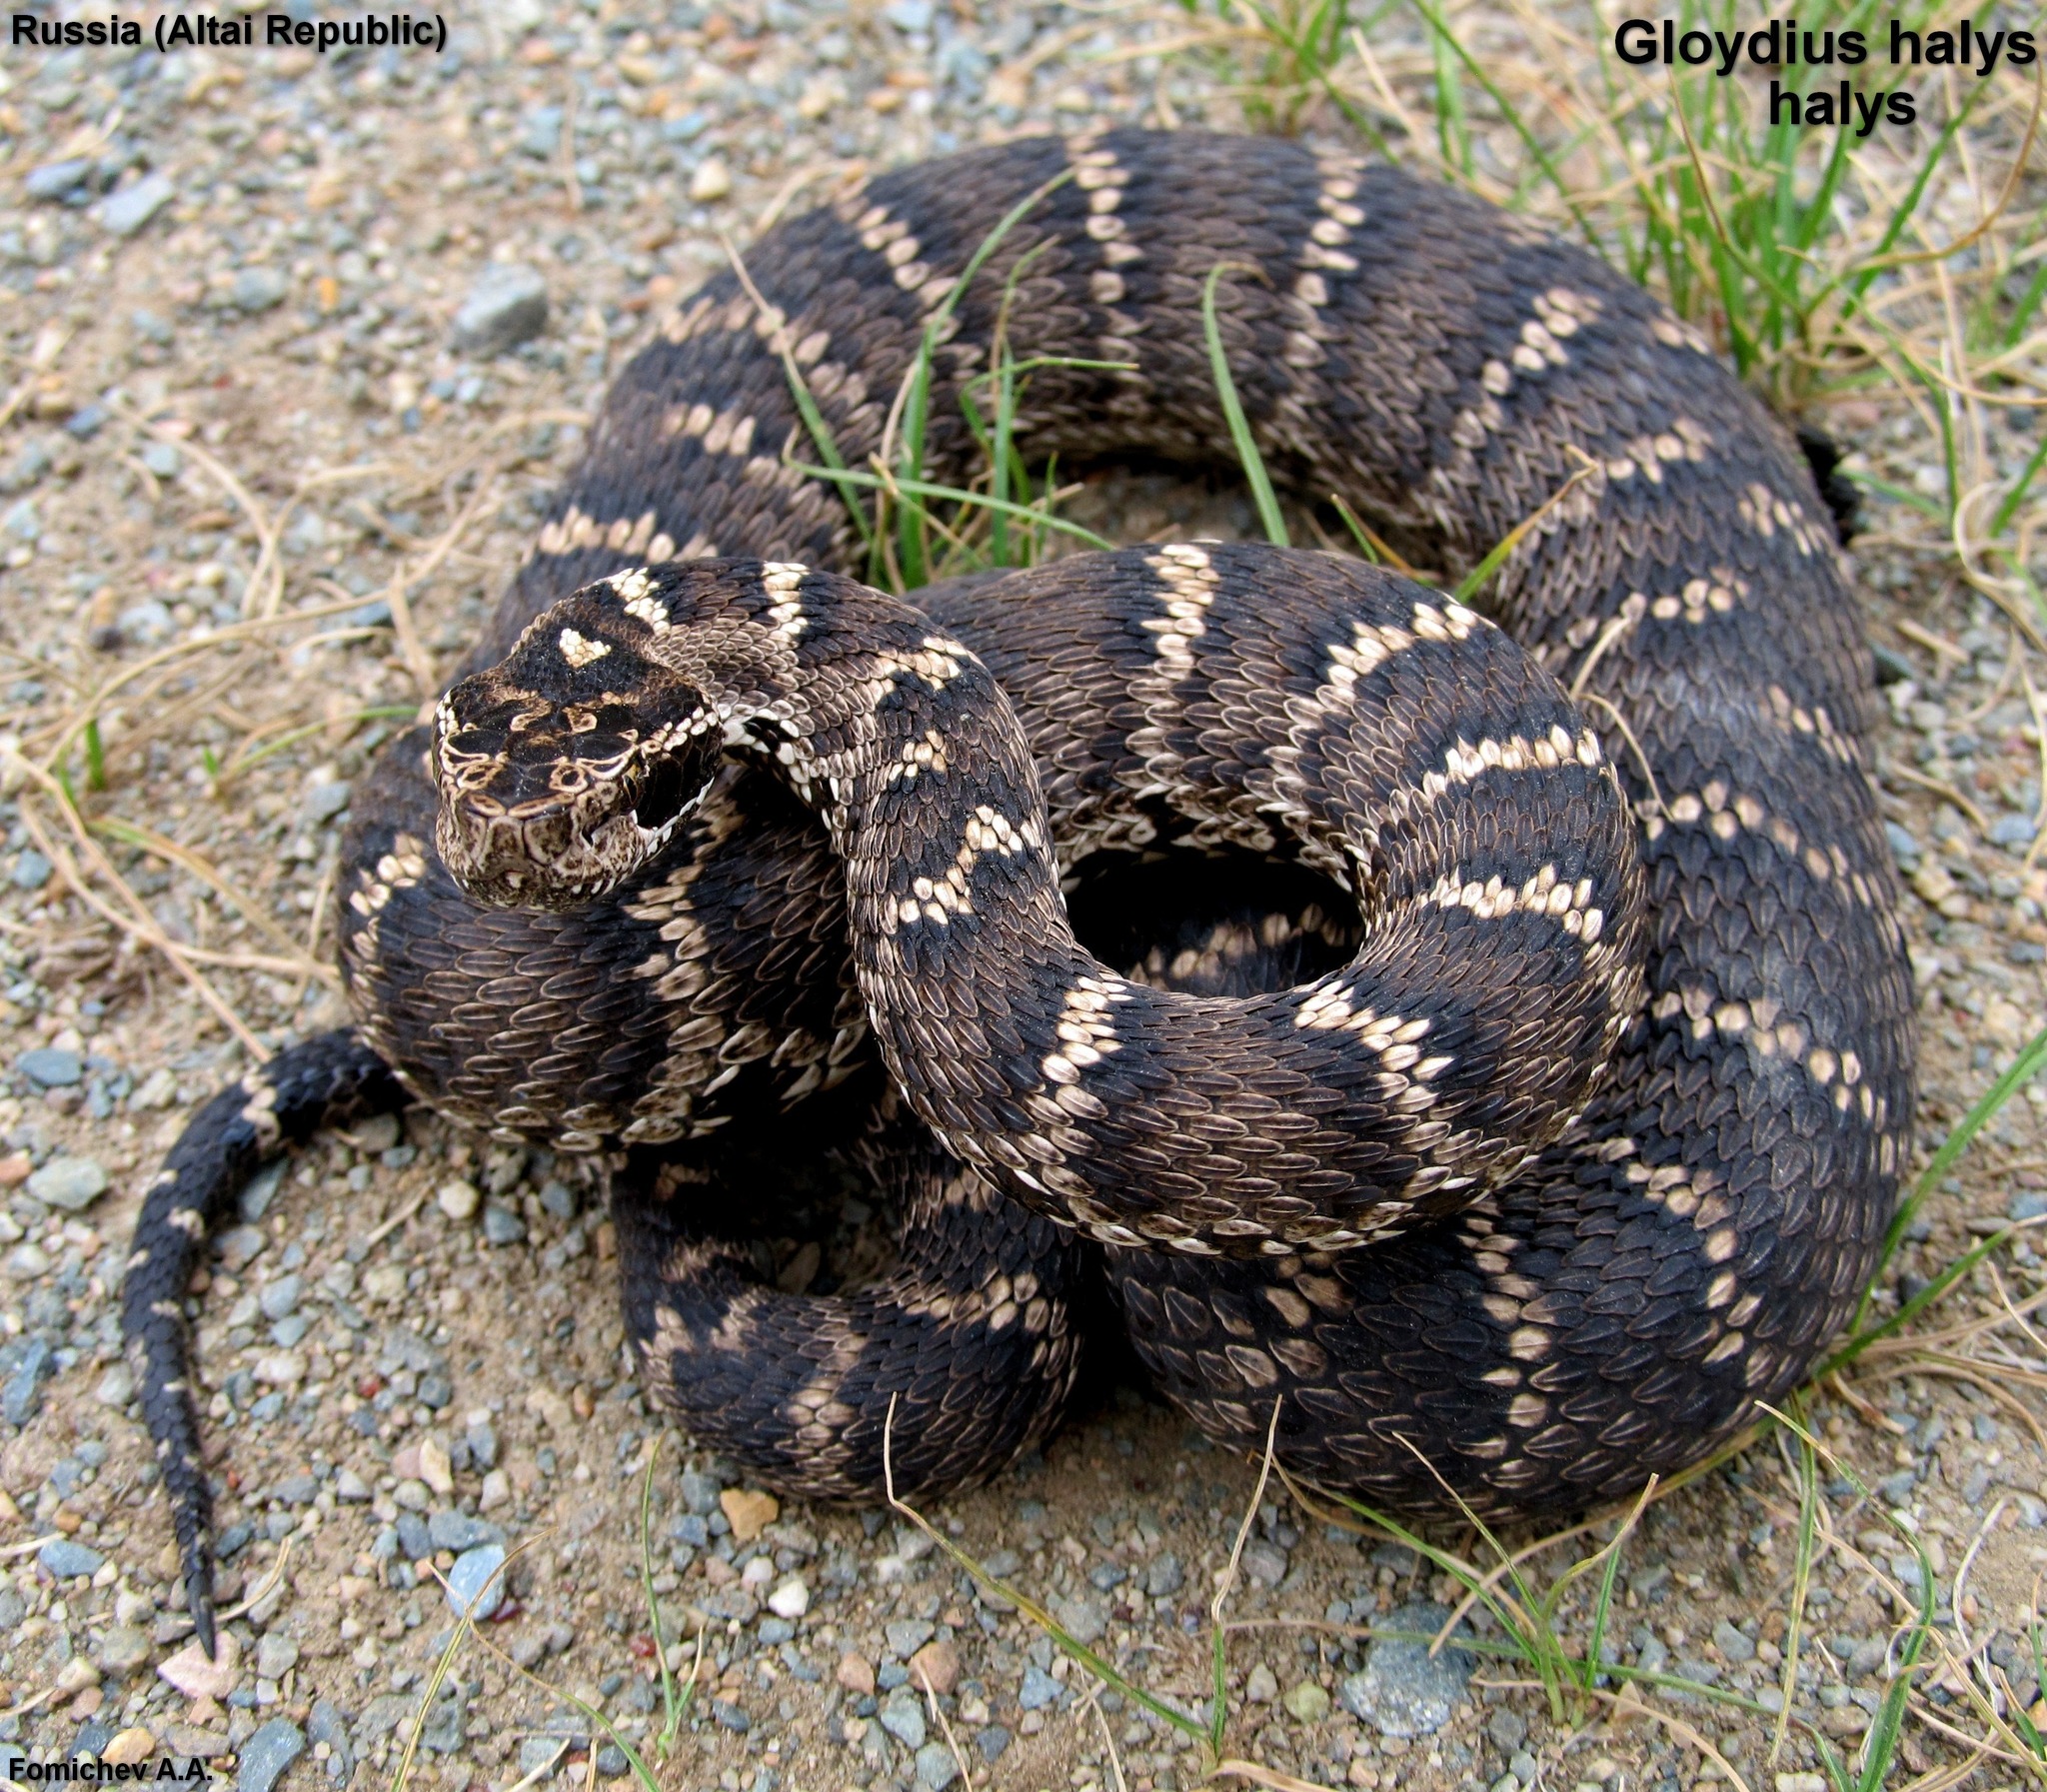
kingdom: Animalia
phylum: Chordata
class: Squamata
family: Viperidae
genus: Gloydius
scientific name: Gloydius halys
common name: Halys pit viper
